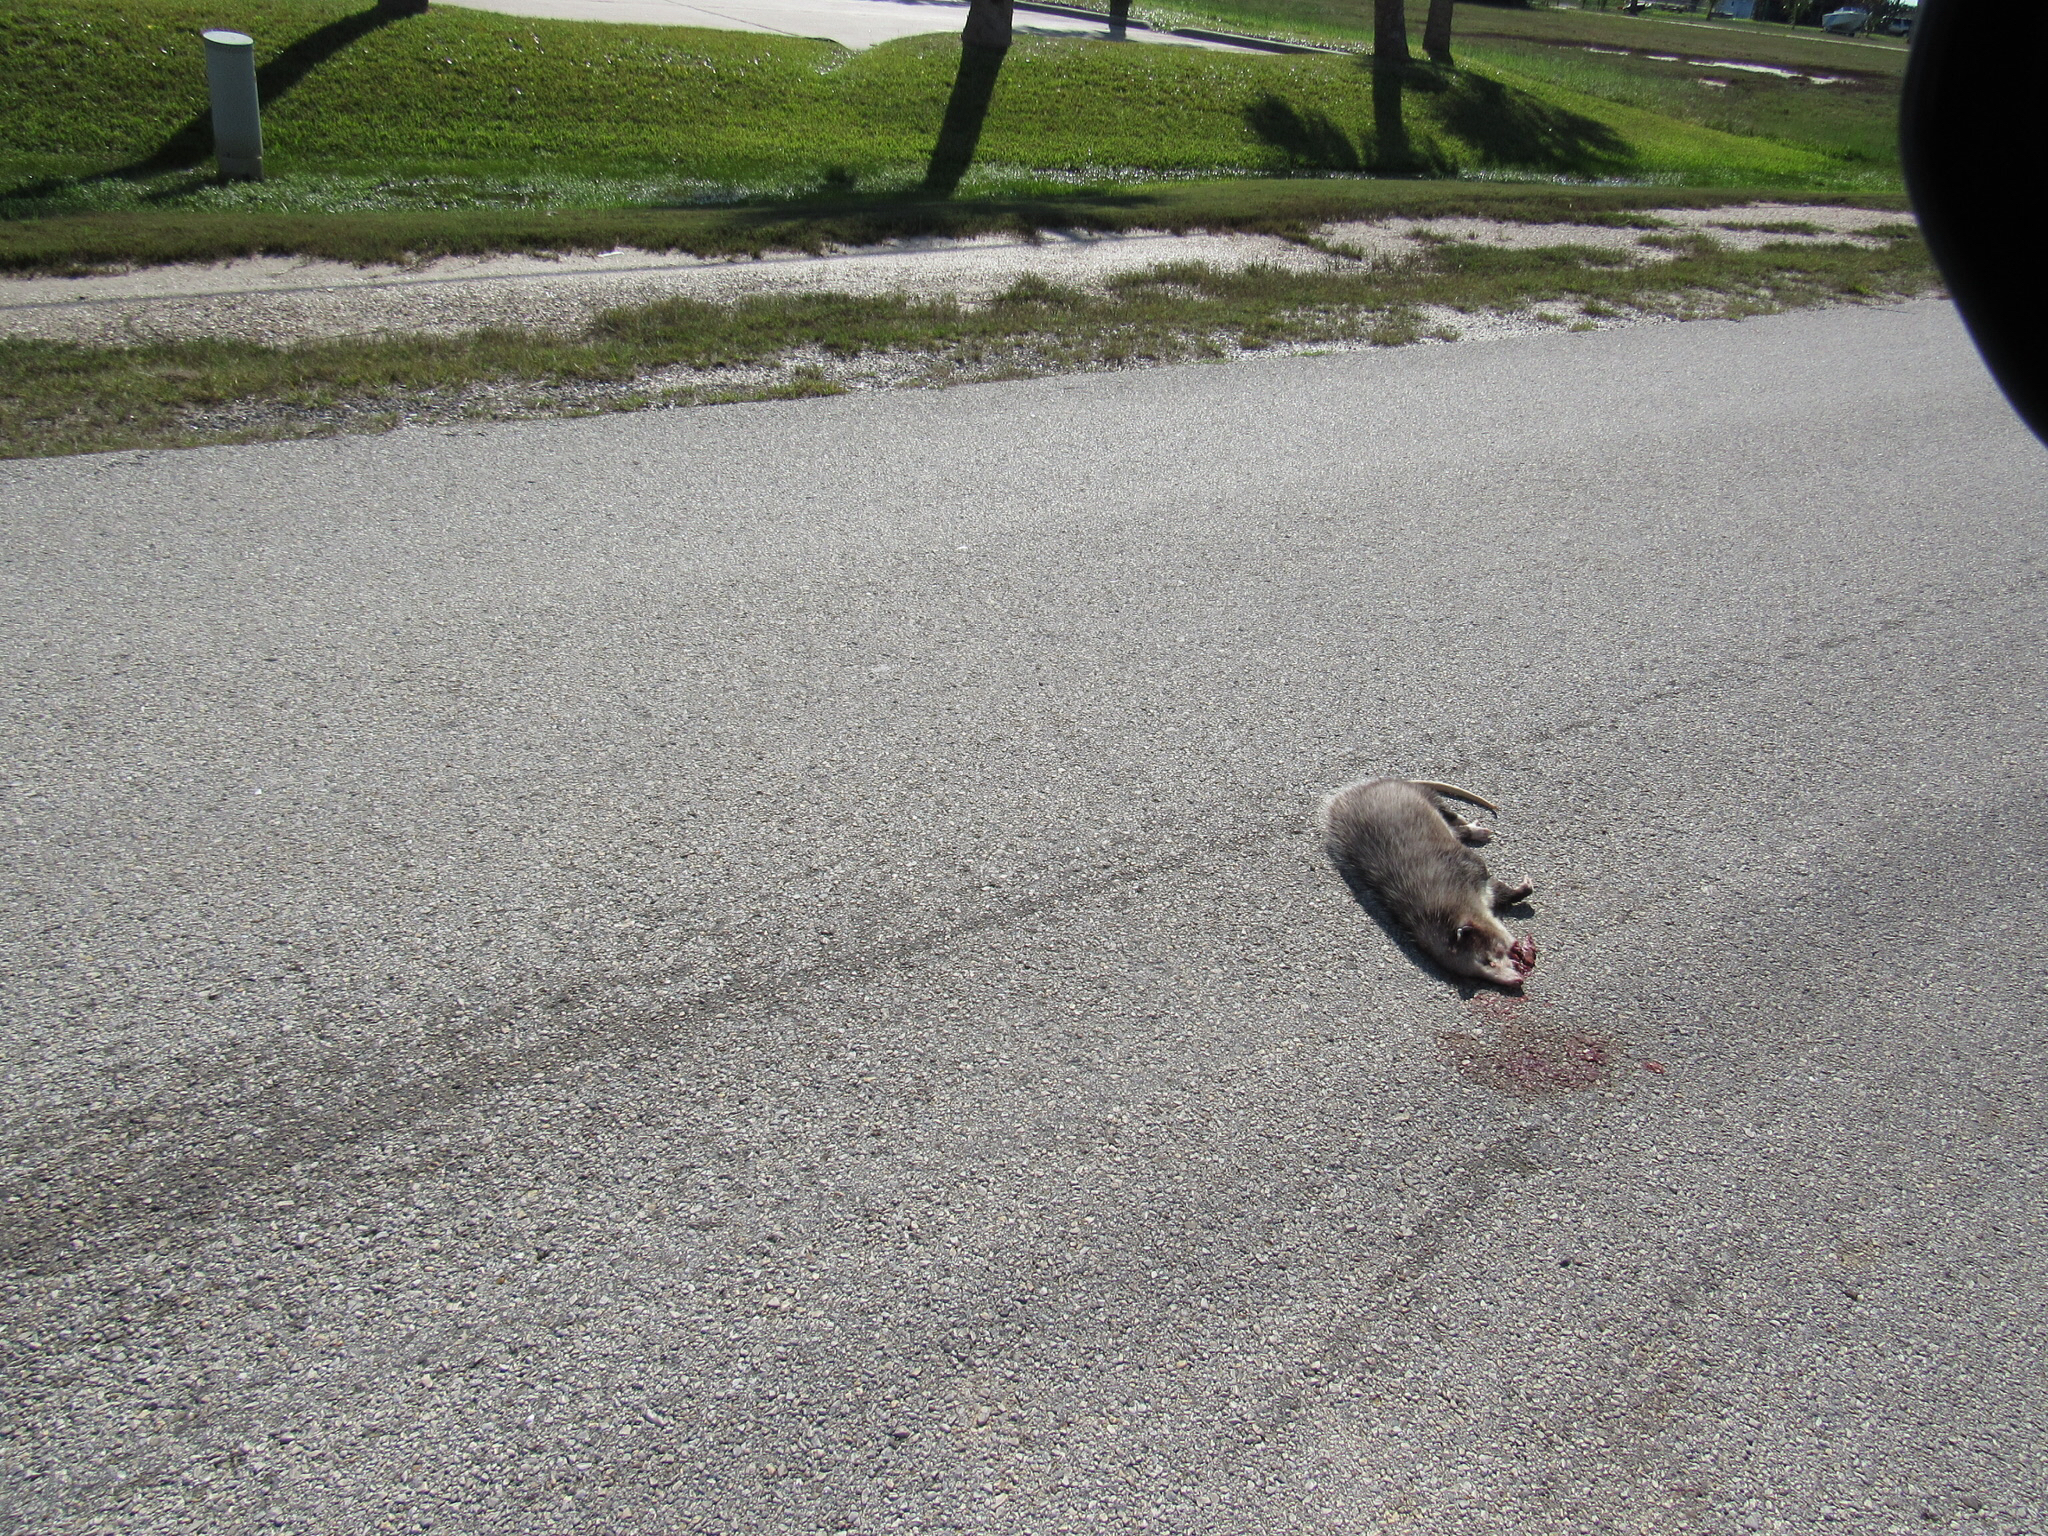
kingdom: Animalia
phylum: Chordata
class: Mammalia
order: Didelphimorphia
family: Didelphidae
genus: Didelphis
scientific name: Didelphis virginiana
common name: Virginia opossum
